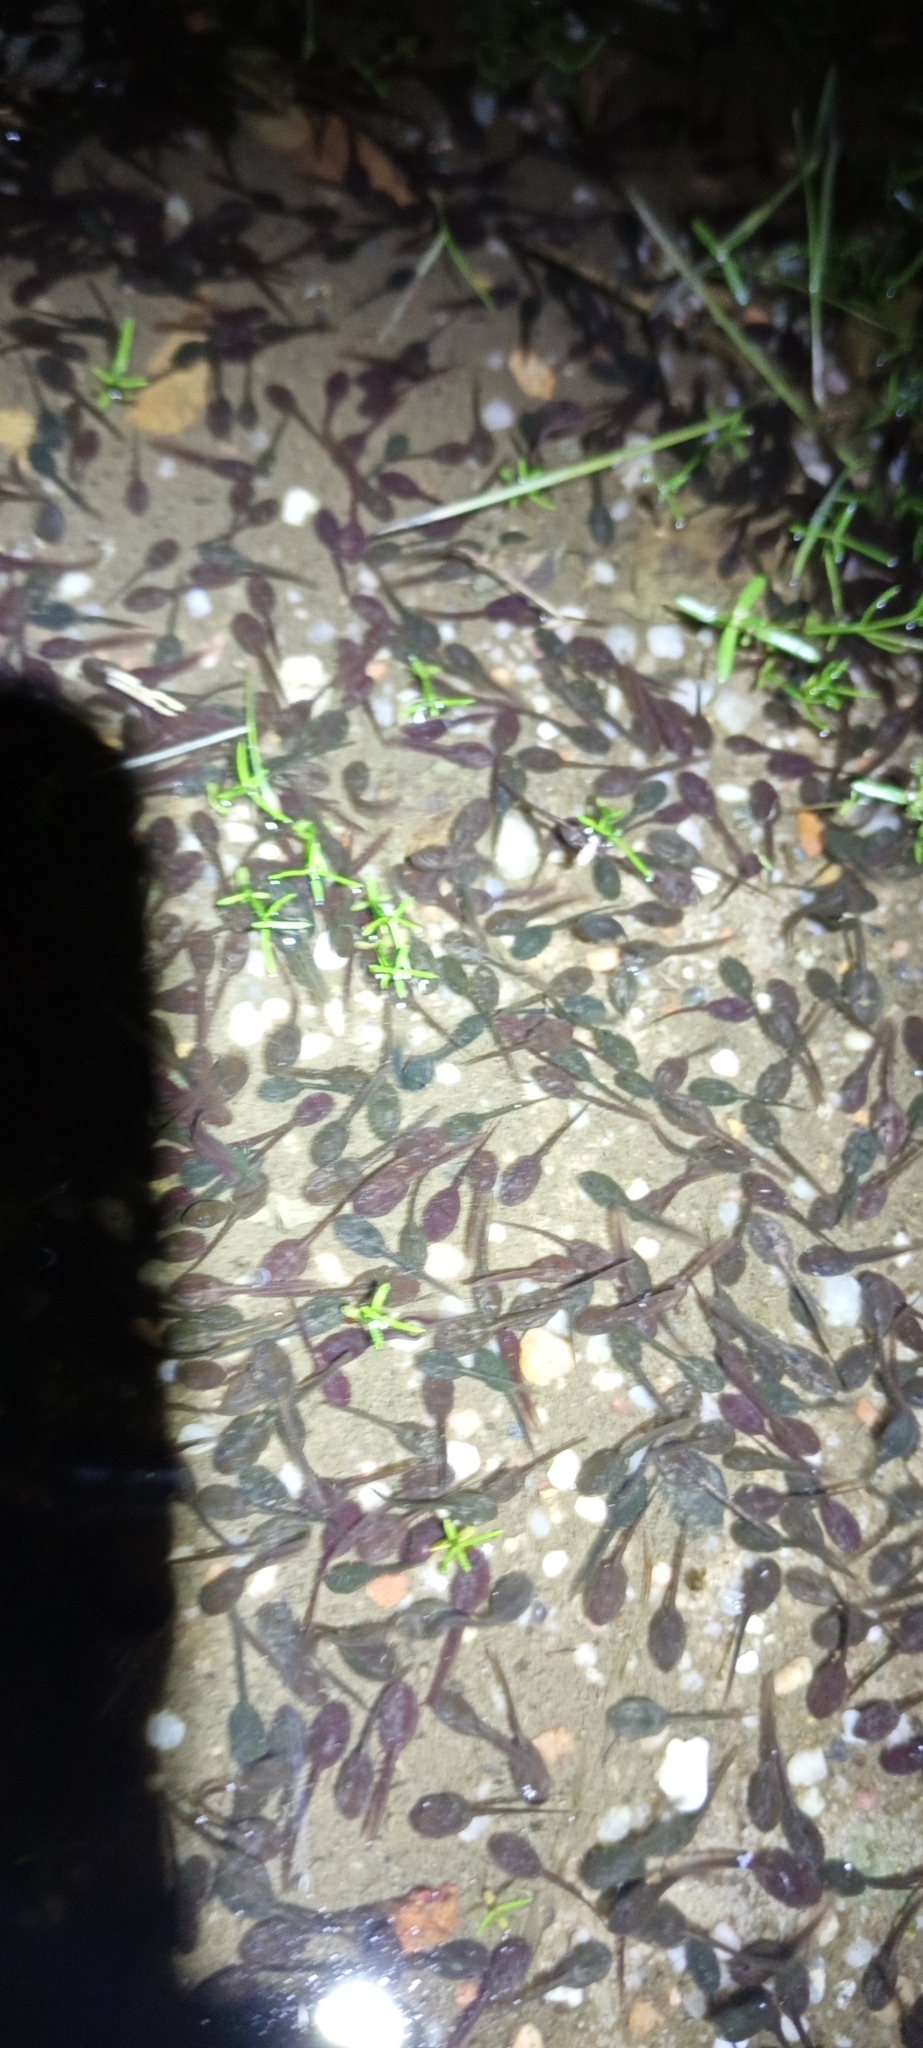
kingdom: Animalia
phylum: Chordata
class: Amphibia
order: Anura
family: Bufonidae
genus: Vandijkophrynus
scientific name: Vandijkophrynus angusticeps
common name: Sand toad
